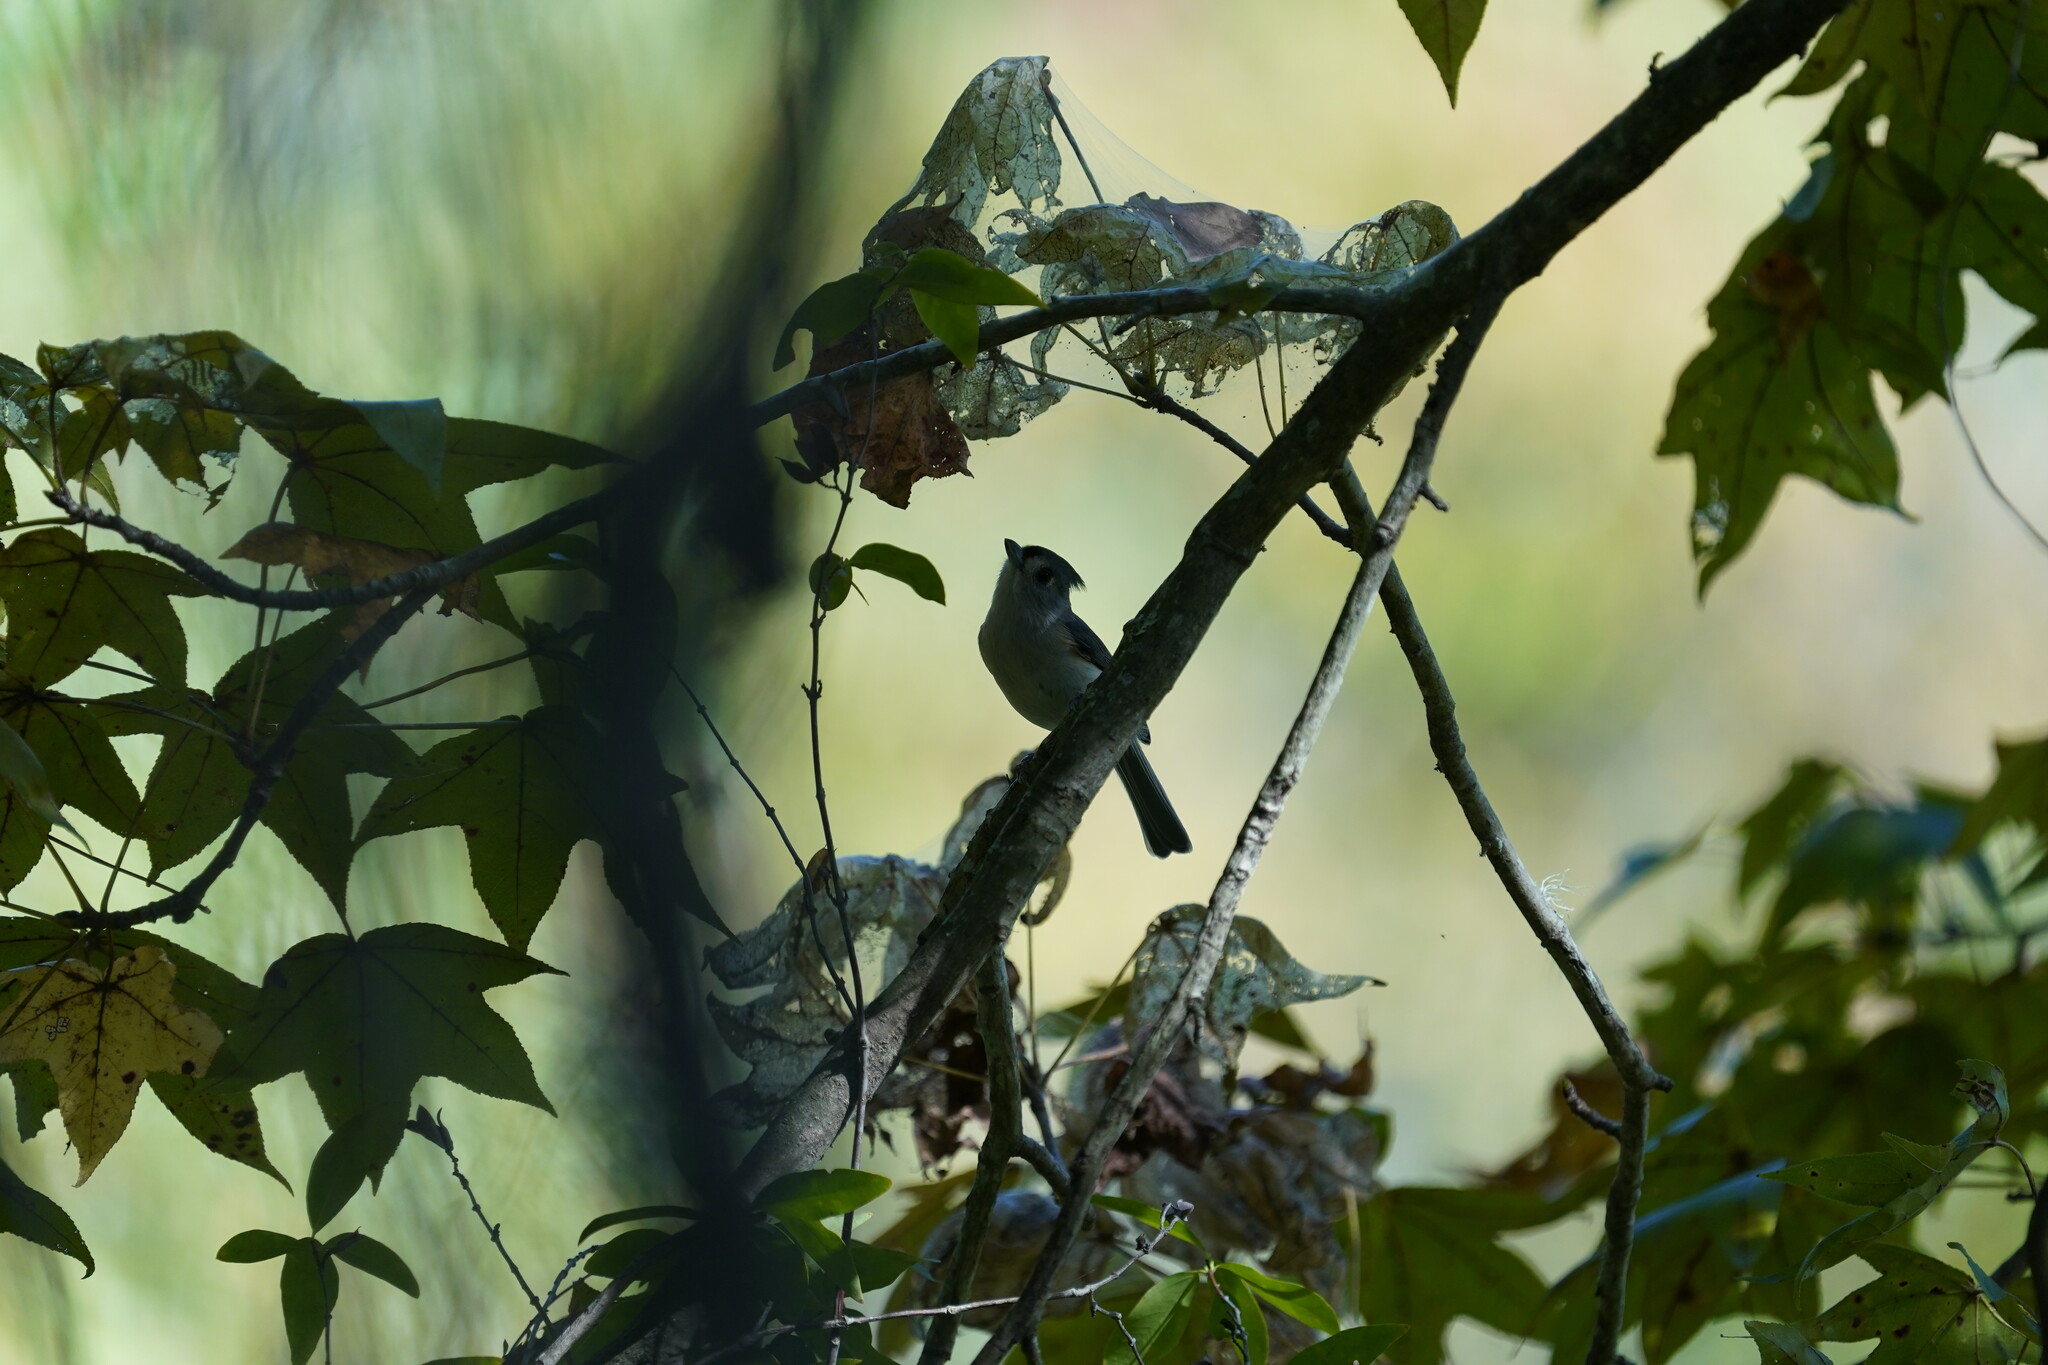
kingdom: Animalia
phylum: Chordata
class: Aves
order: Passeriformes
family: Paridae
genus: Baeolophus
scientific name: Baeolophus bicolor
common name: Tufted titmouse
